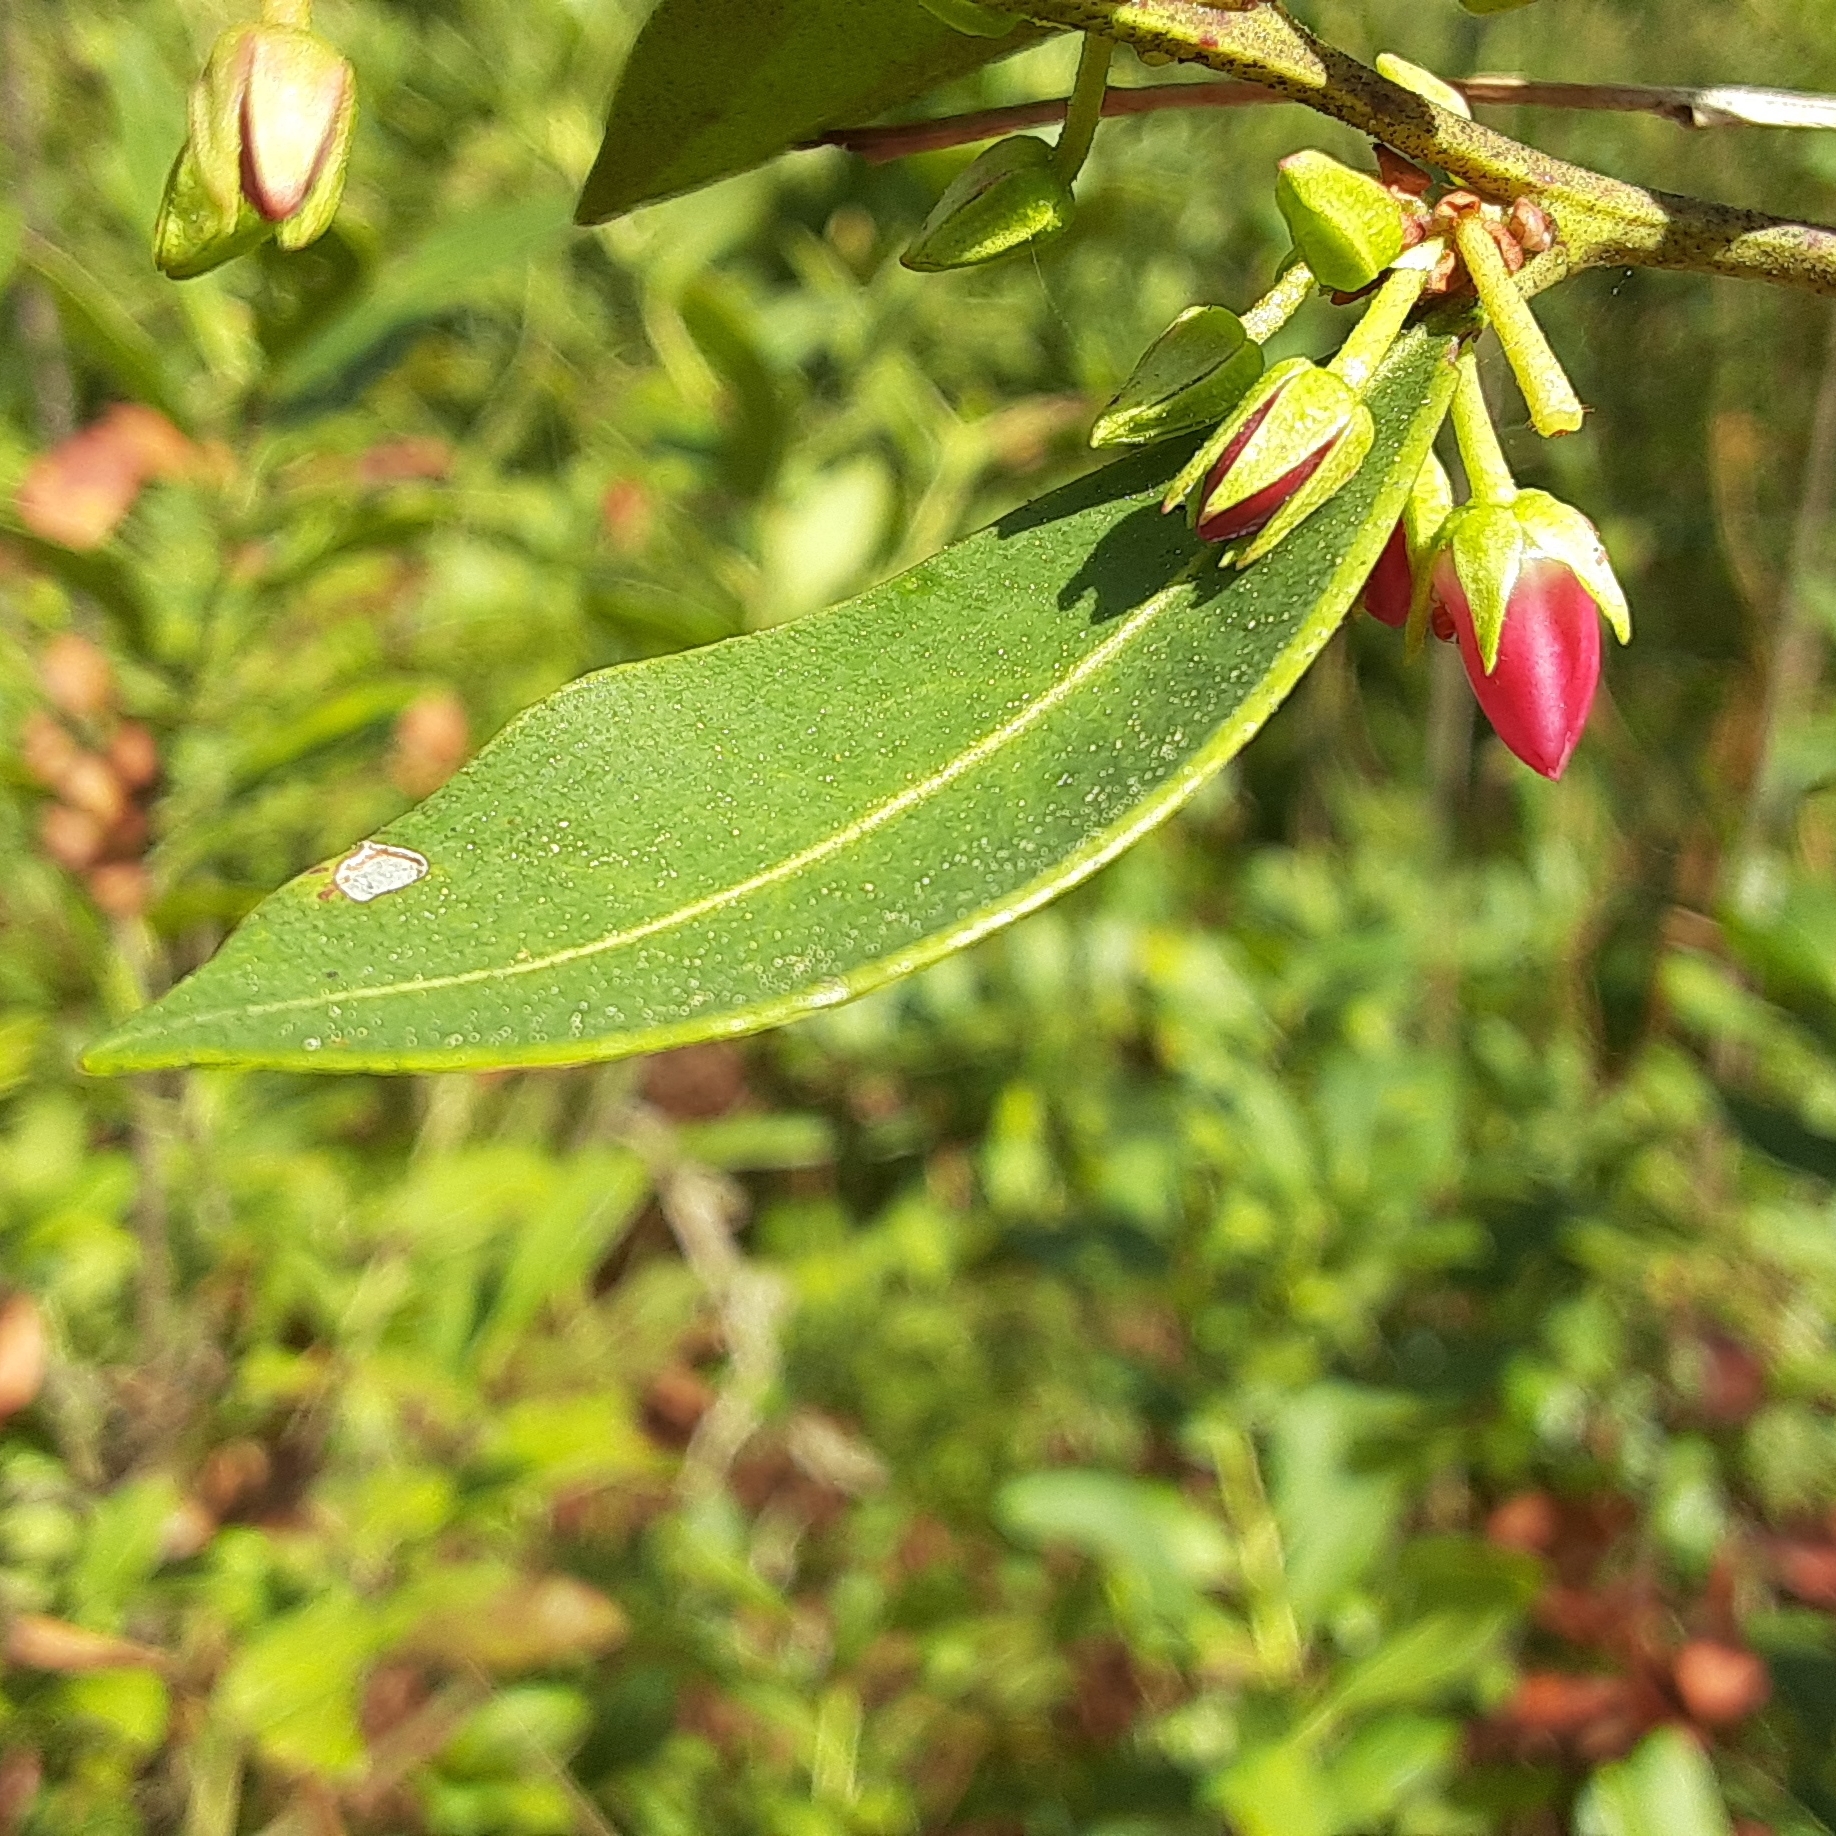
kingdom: Plantae
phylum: Tracheophyta
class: Magnoliopsida
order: Ericales
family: Ericaceae
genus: Lyonia
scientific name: Lyonia lucida
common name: Fetterbush
